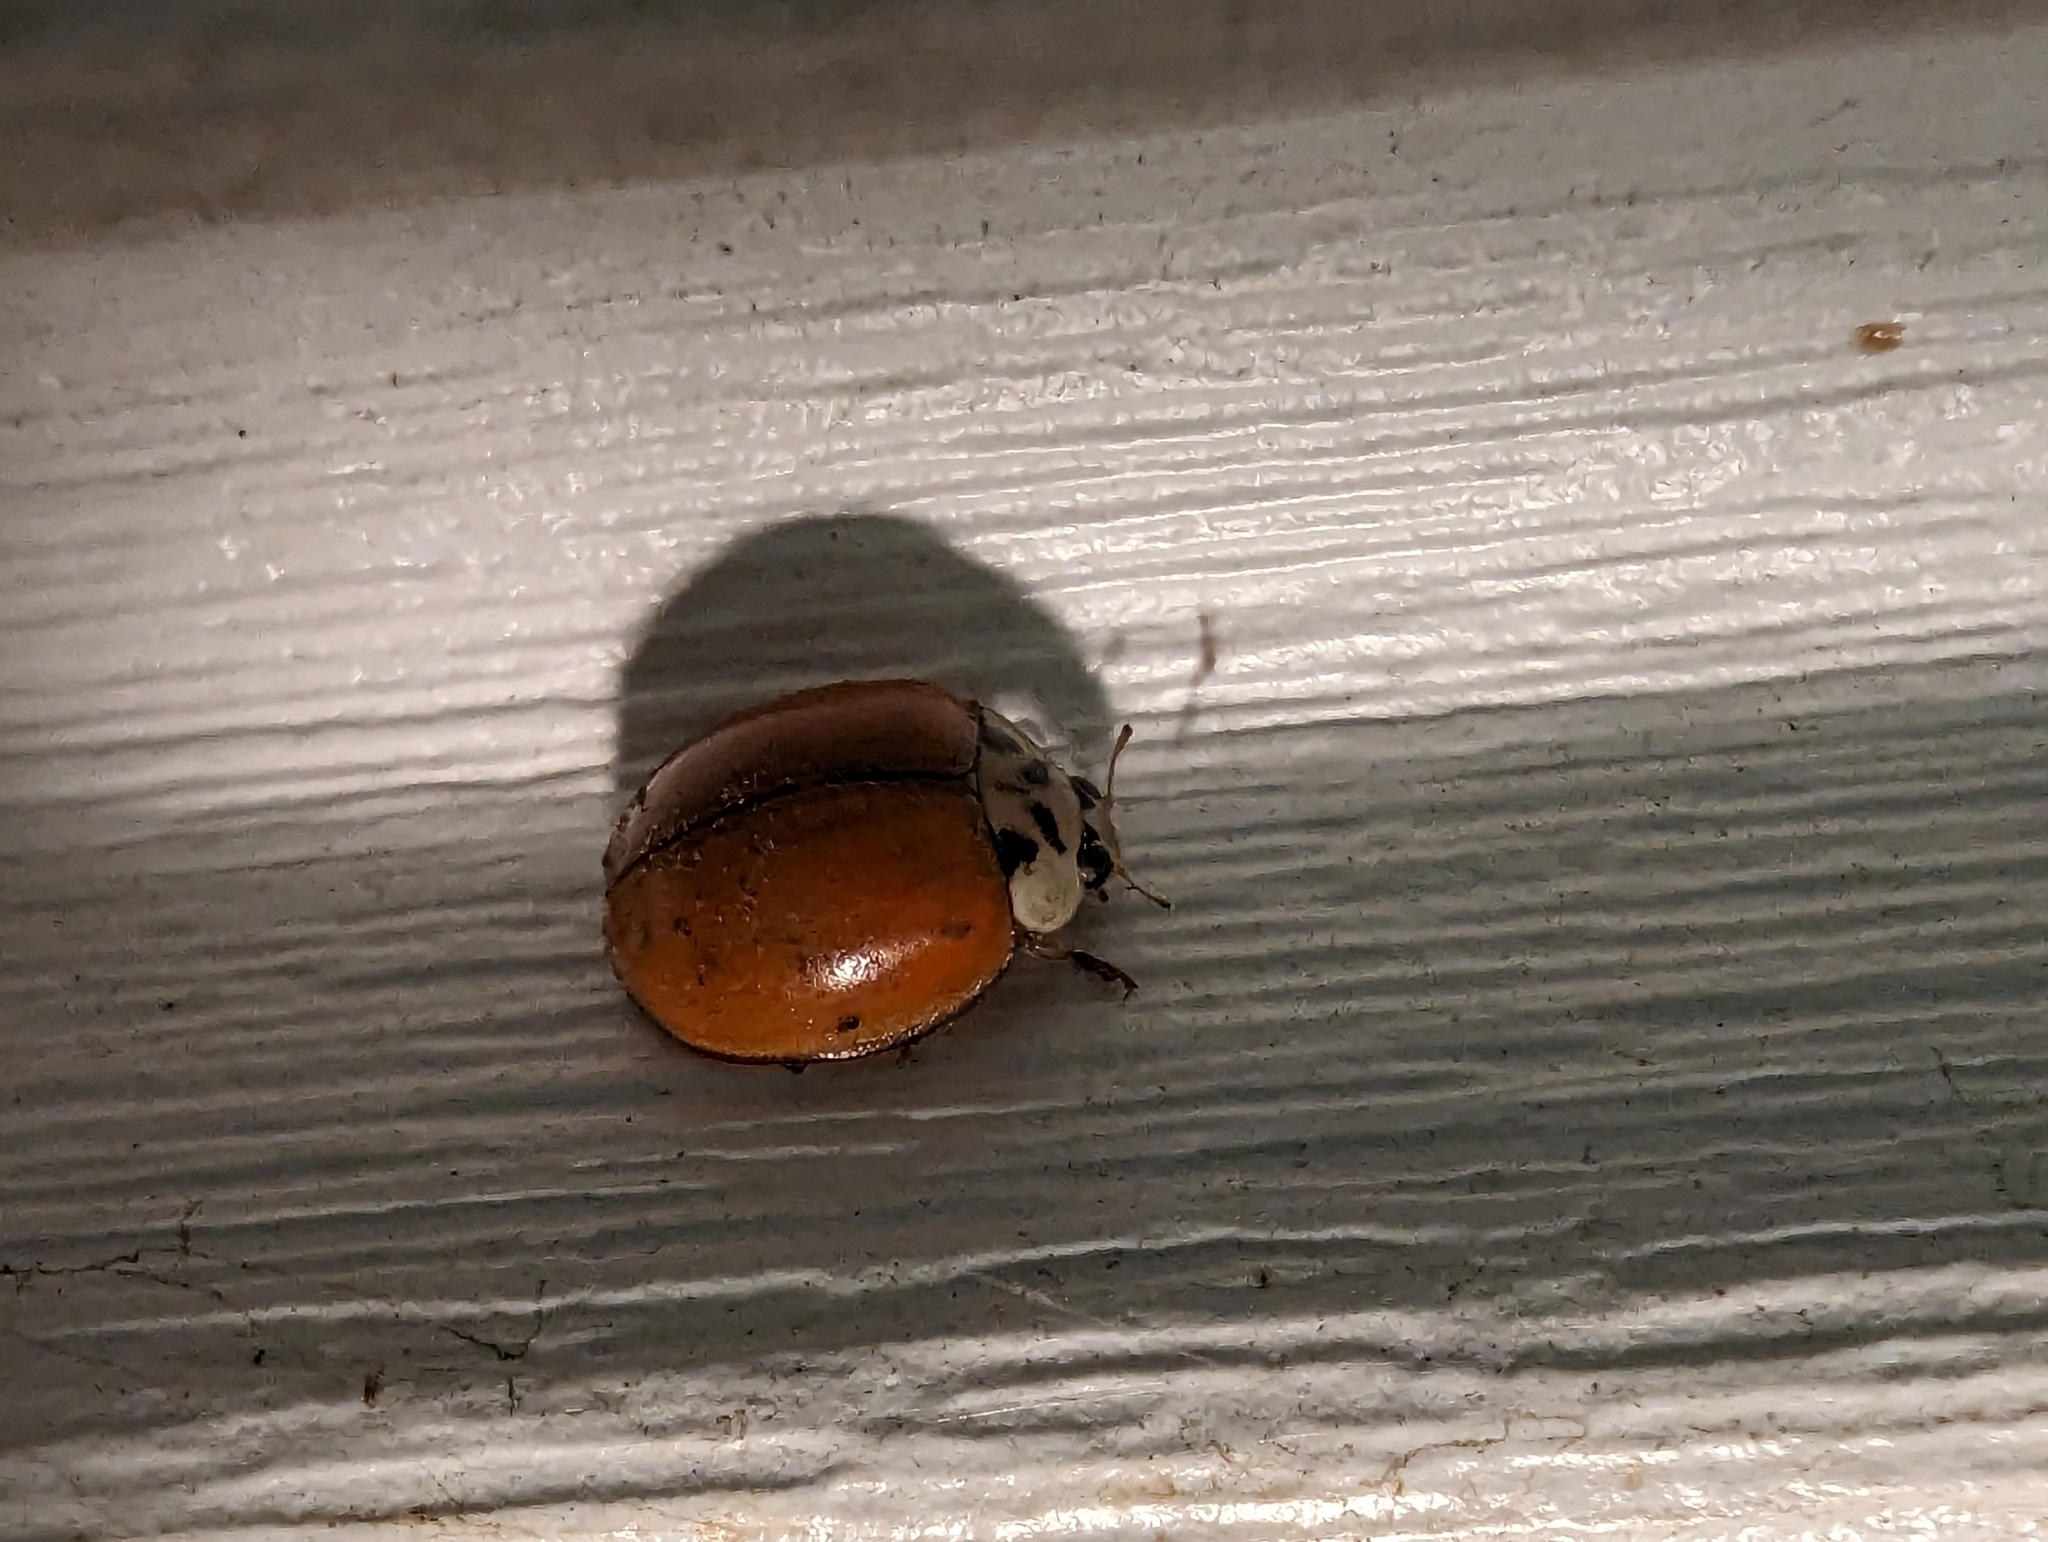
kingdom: Animalia
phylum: Arthropoda
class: Insecta
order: Coleoptera
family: Coccinellidae
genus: Harmonia
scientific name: Harmonia axyridis
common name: Harlequin ladybird
